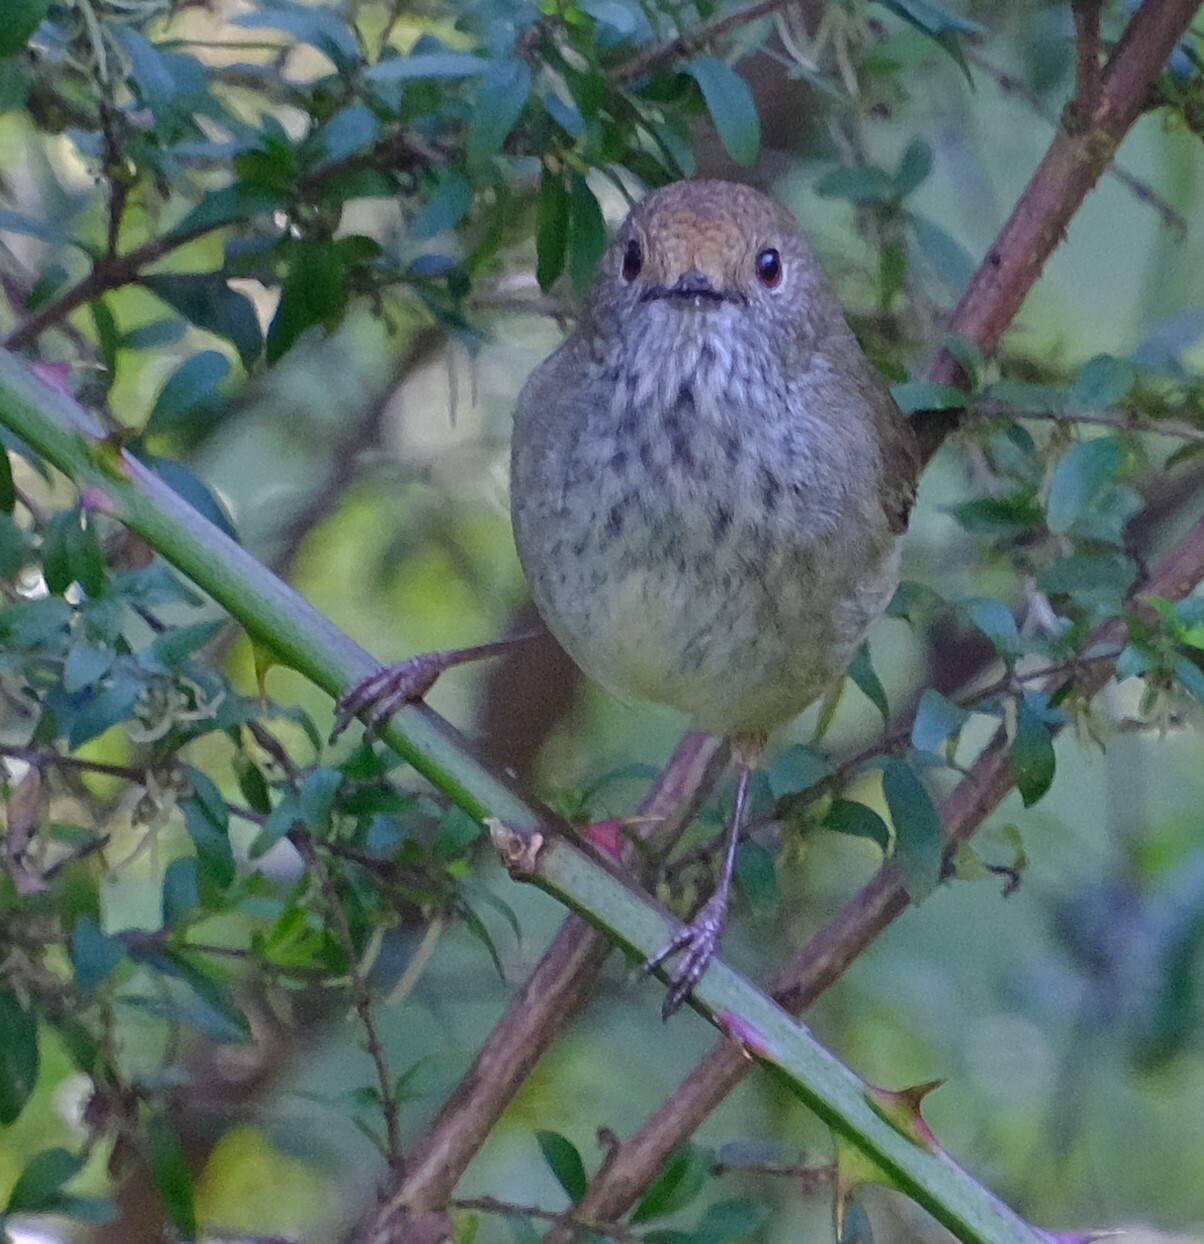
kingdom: Animalia
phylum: Chordata
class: Aves
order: Passeriformes
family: Acanthizidae
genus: Acanthiza
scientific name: Acanthiza pusilla
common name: Brown thornbill
